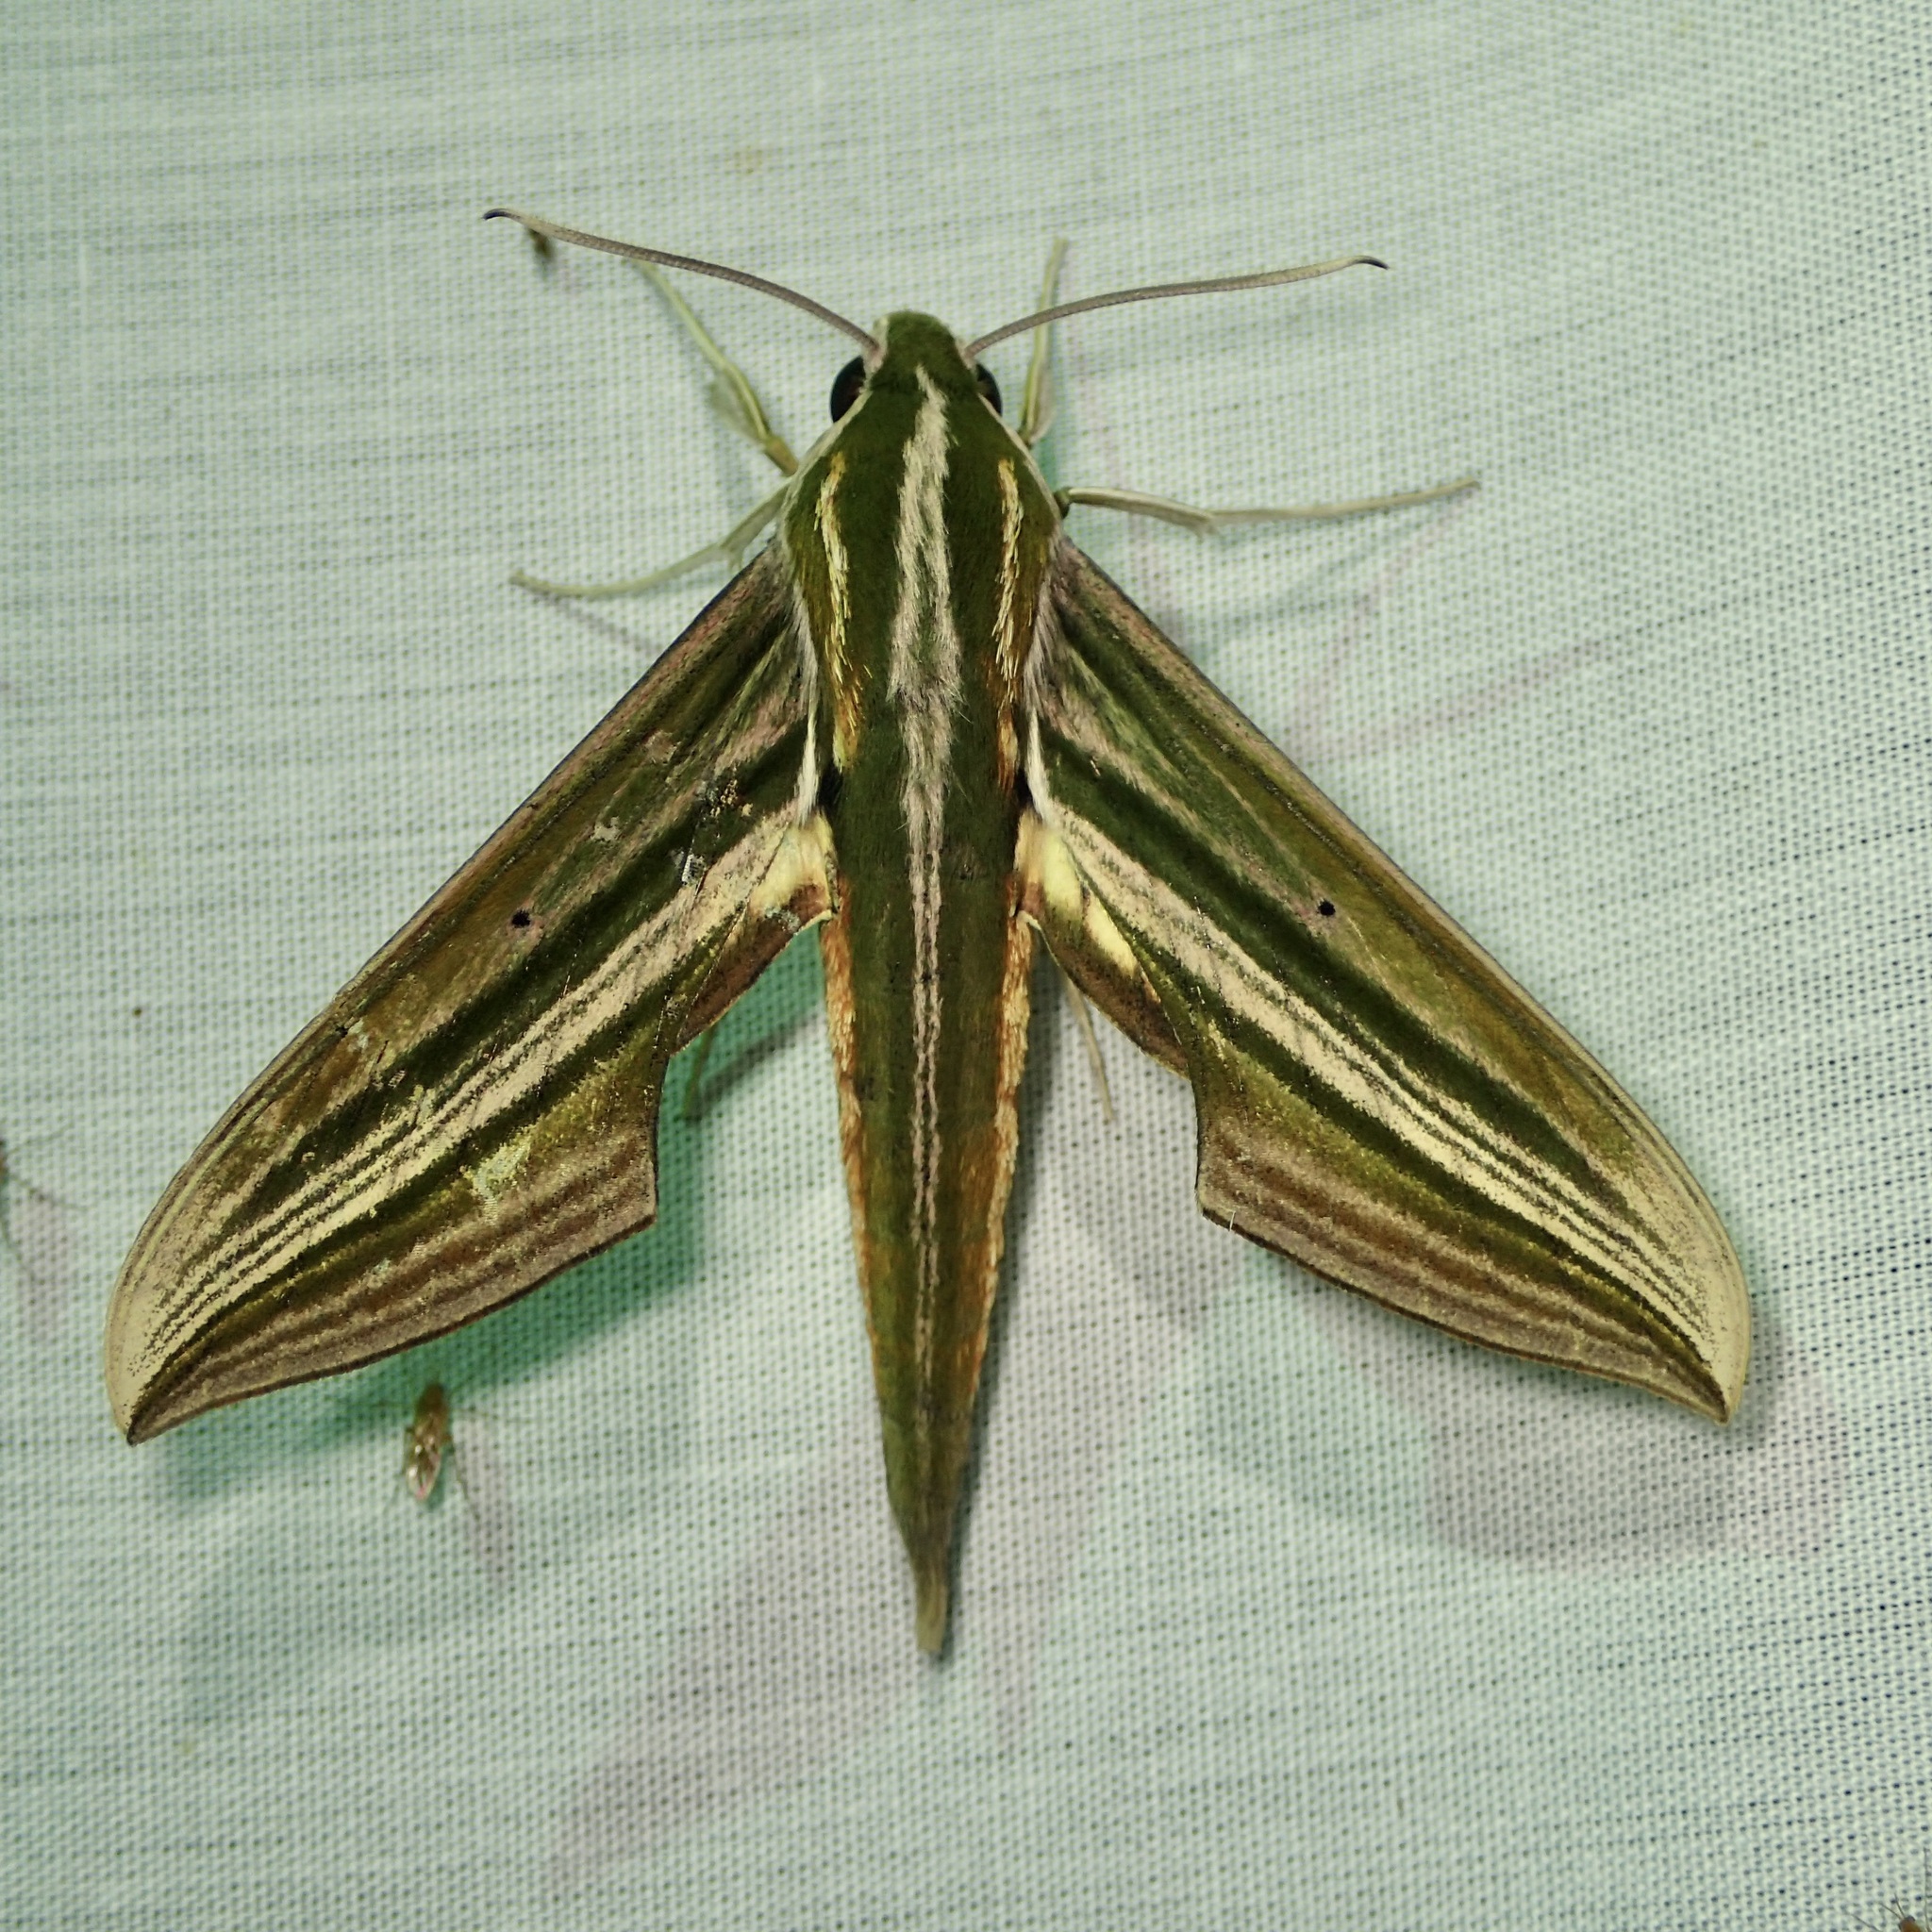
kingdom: Animalia
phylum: Arthropoda
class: Insecta
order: Lepidoptera
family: Sphingidae
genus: Xylophanes
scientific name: Xylophanes eumedon
